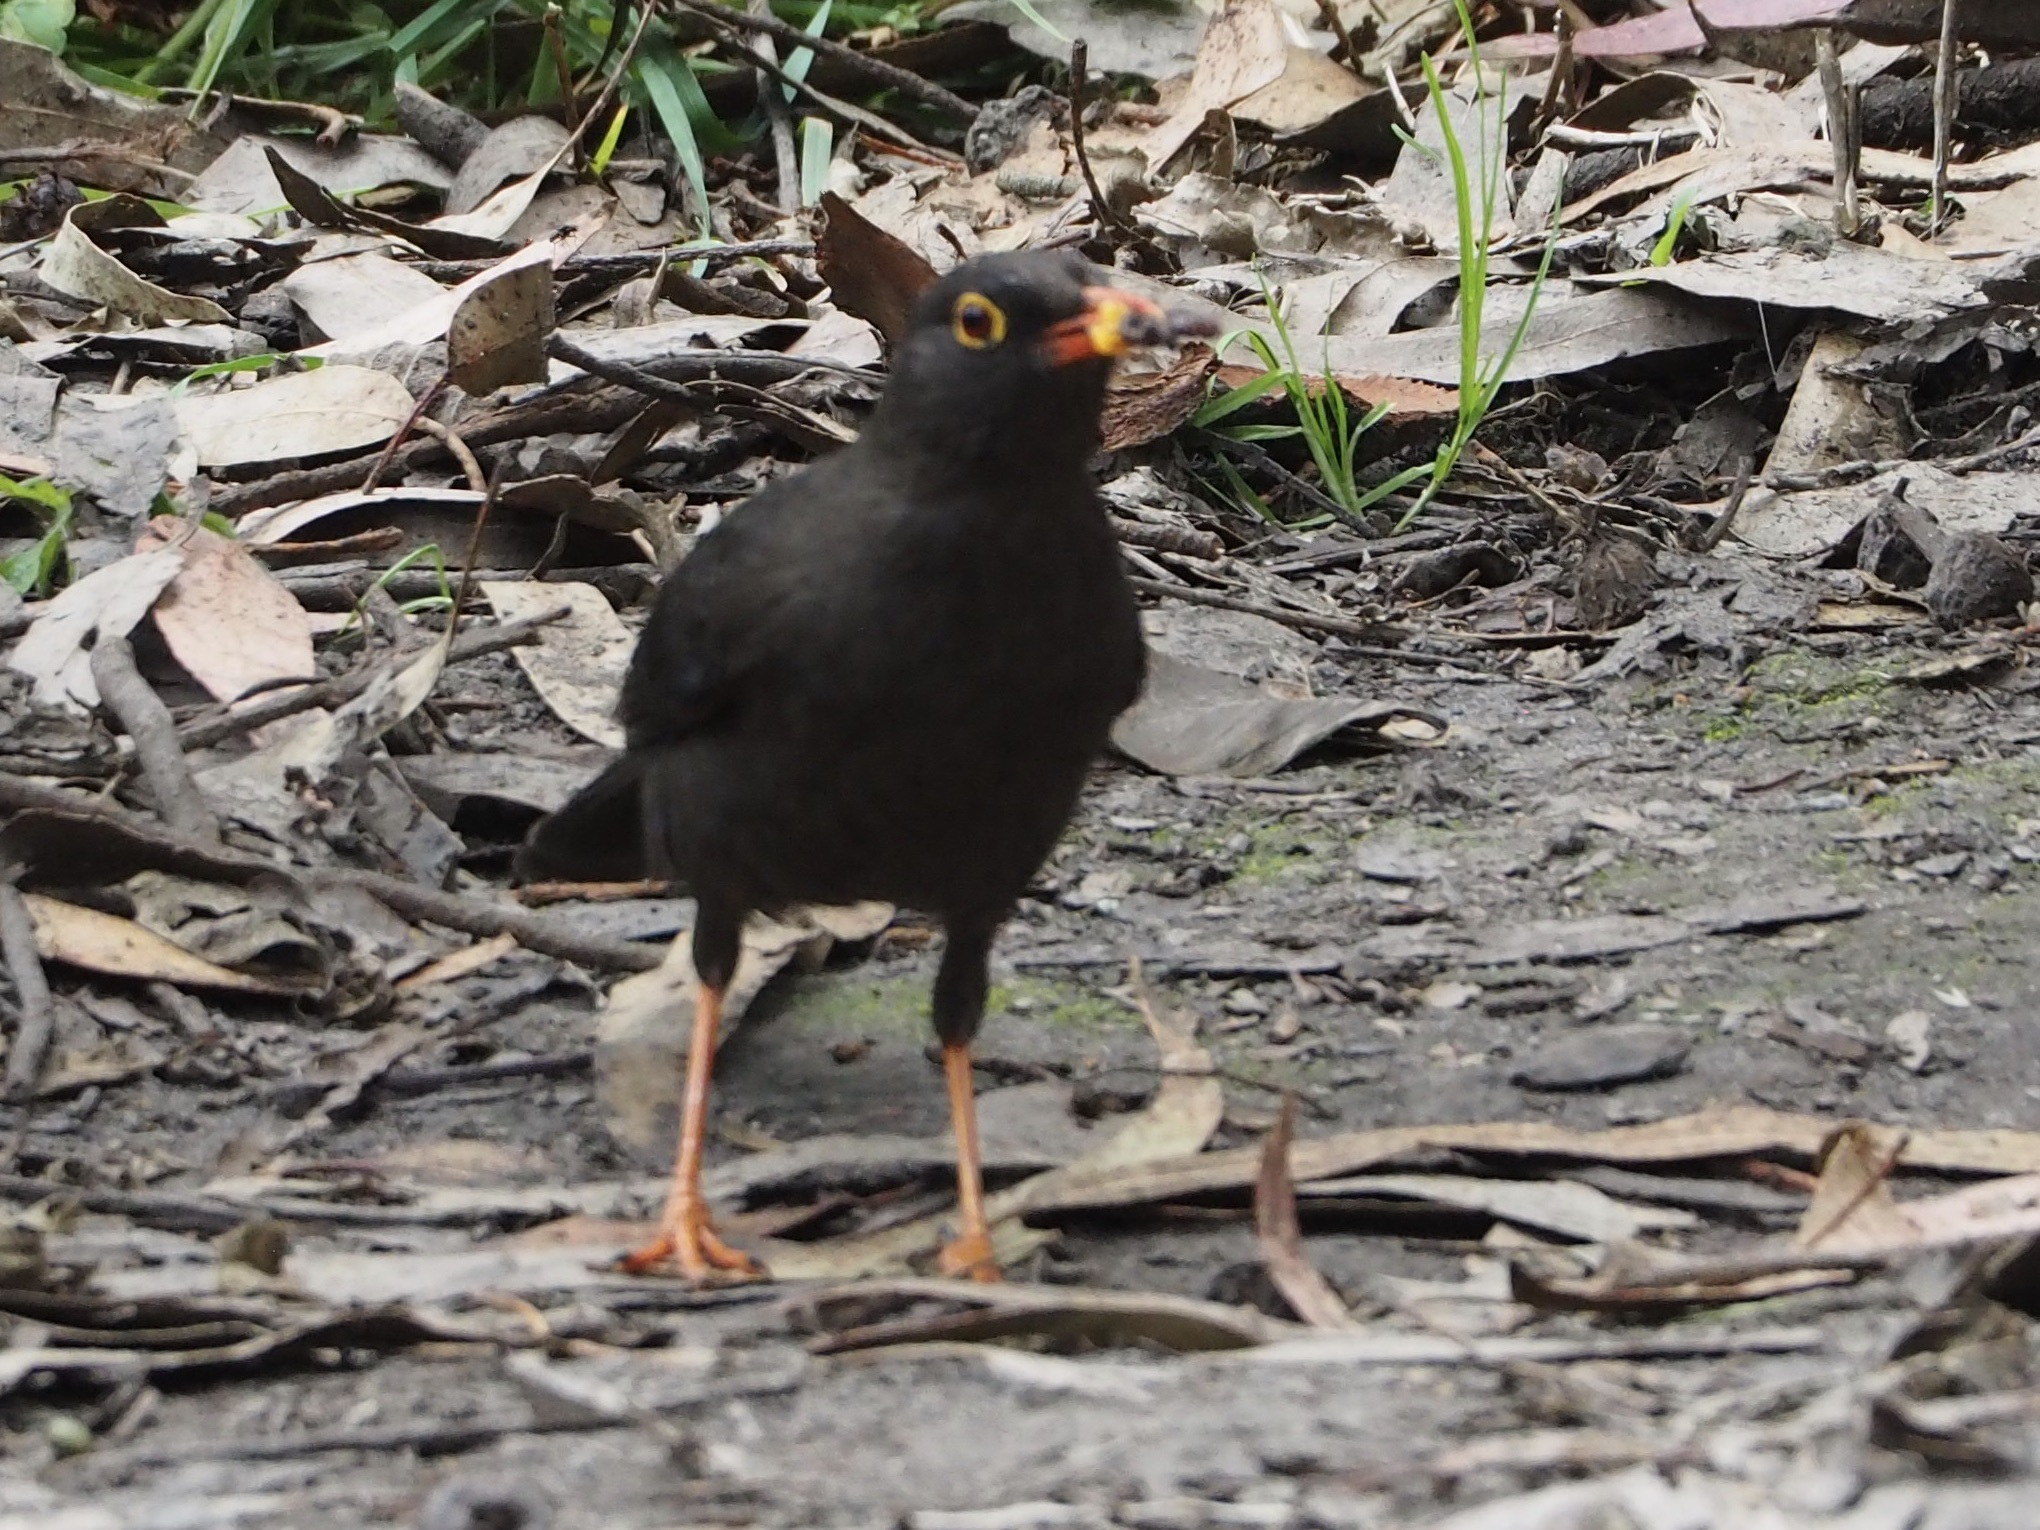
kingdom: Animalia
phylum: Chordata
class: Aves
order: Passeriformes
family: Turdidae
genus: Turdus
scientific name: Turdus fuscater
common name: Great thrush
